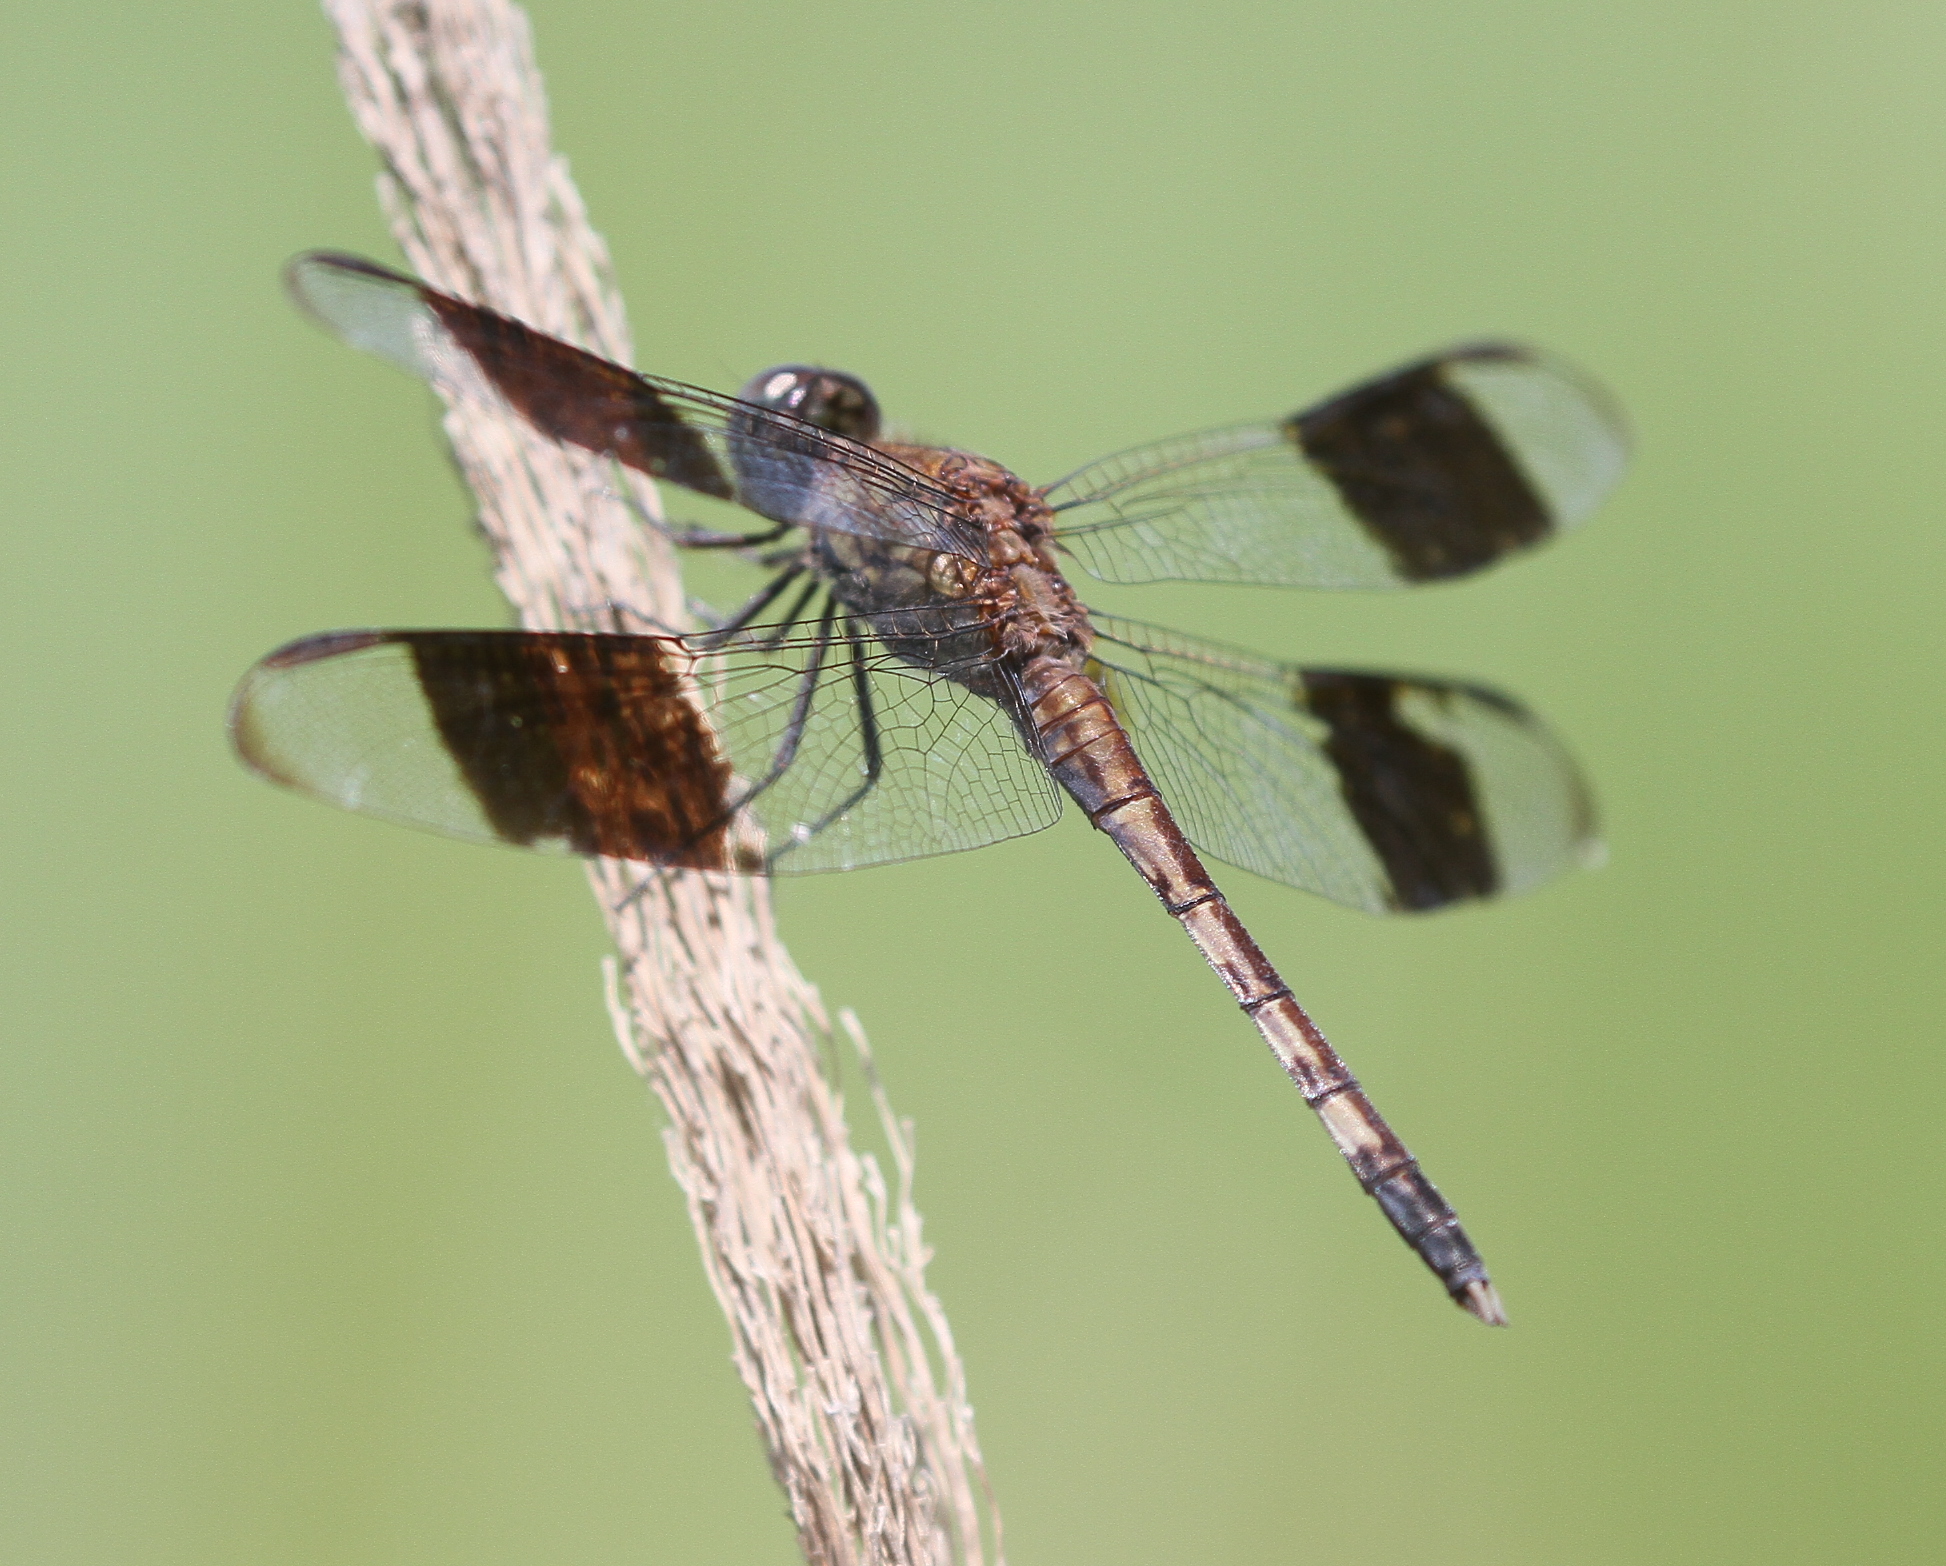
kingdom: Animalia
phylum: Arthropoda
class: Insecta
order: Odonata
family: Libellulidae
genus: Erythrodiplax
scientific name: Erythrodiplax umbrata
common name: Band-winged dragonlet
